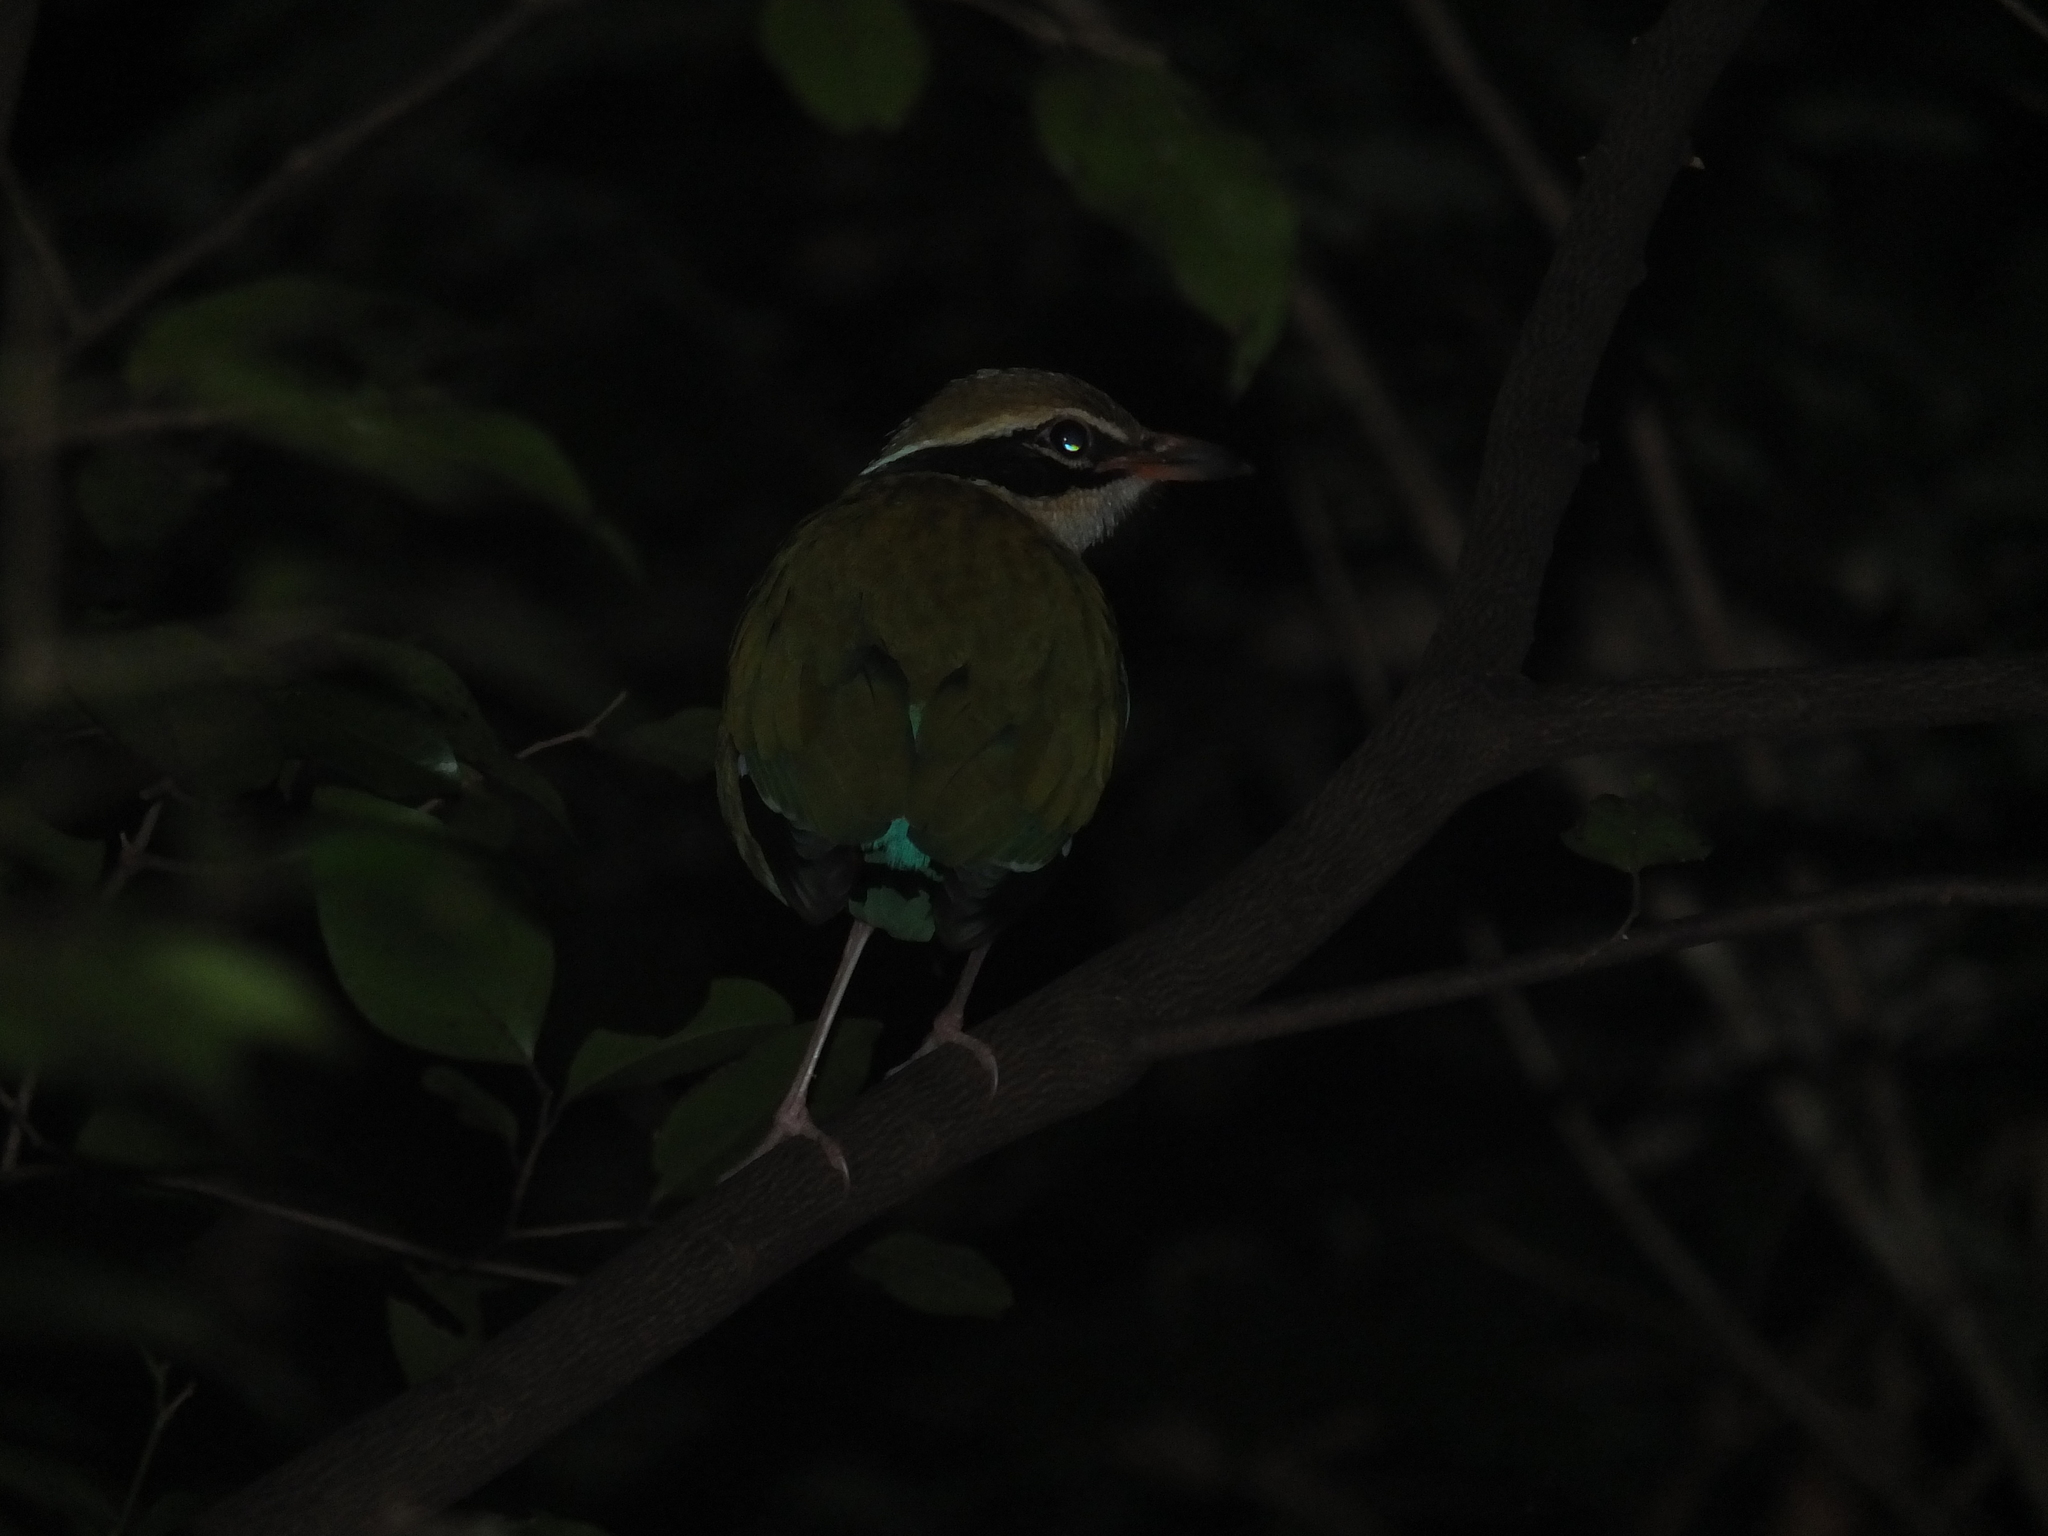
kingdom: Animalia
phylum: Chordata
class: Aves
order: Passeriformes
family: Pittidae
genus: Pitta
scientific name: Pitta brachyura
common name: Indian pitta
